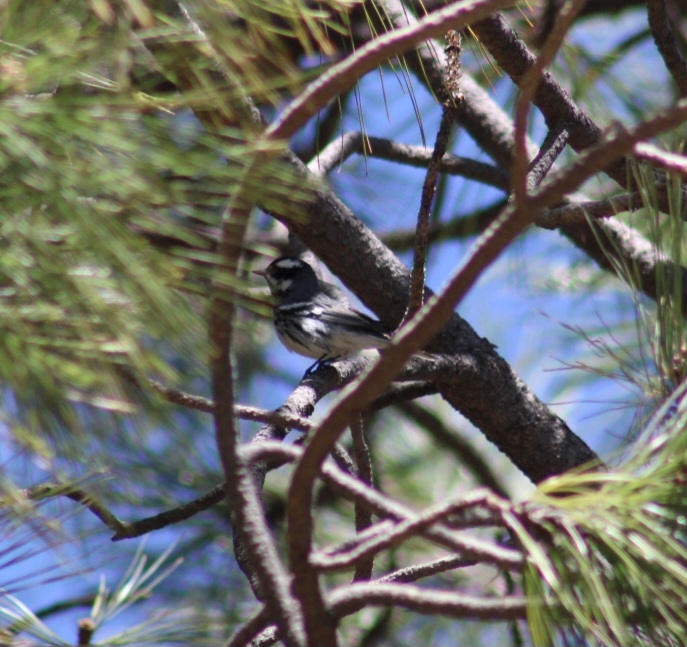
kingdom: Animalia
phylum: Chordata
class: Aves
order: Passeriformes
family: Parulidae
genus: Setophaga
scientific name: Setophaga nigrescens
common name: Black-throated gray warbler
